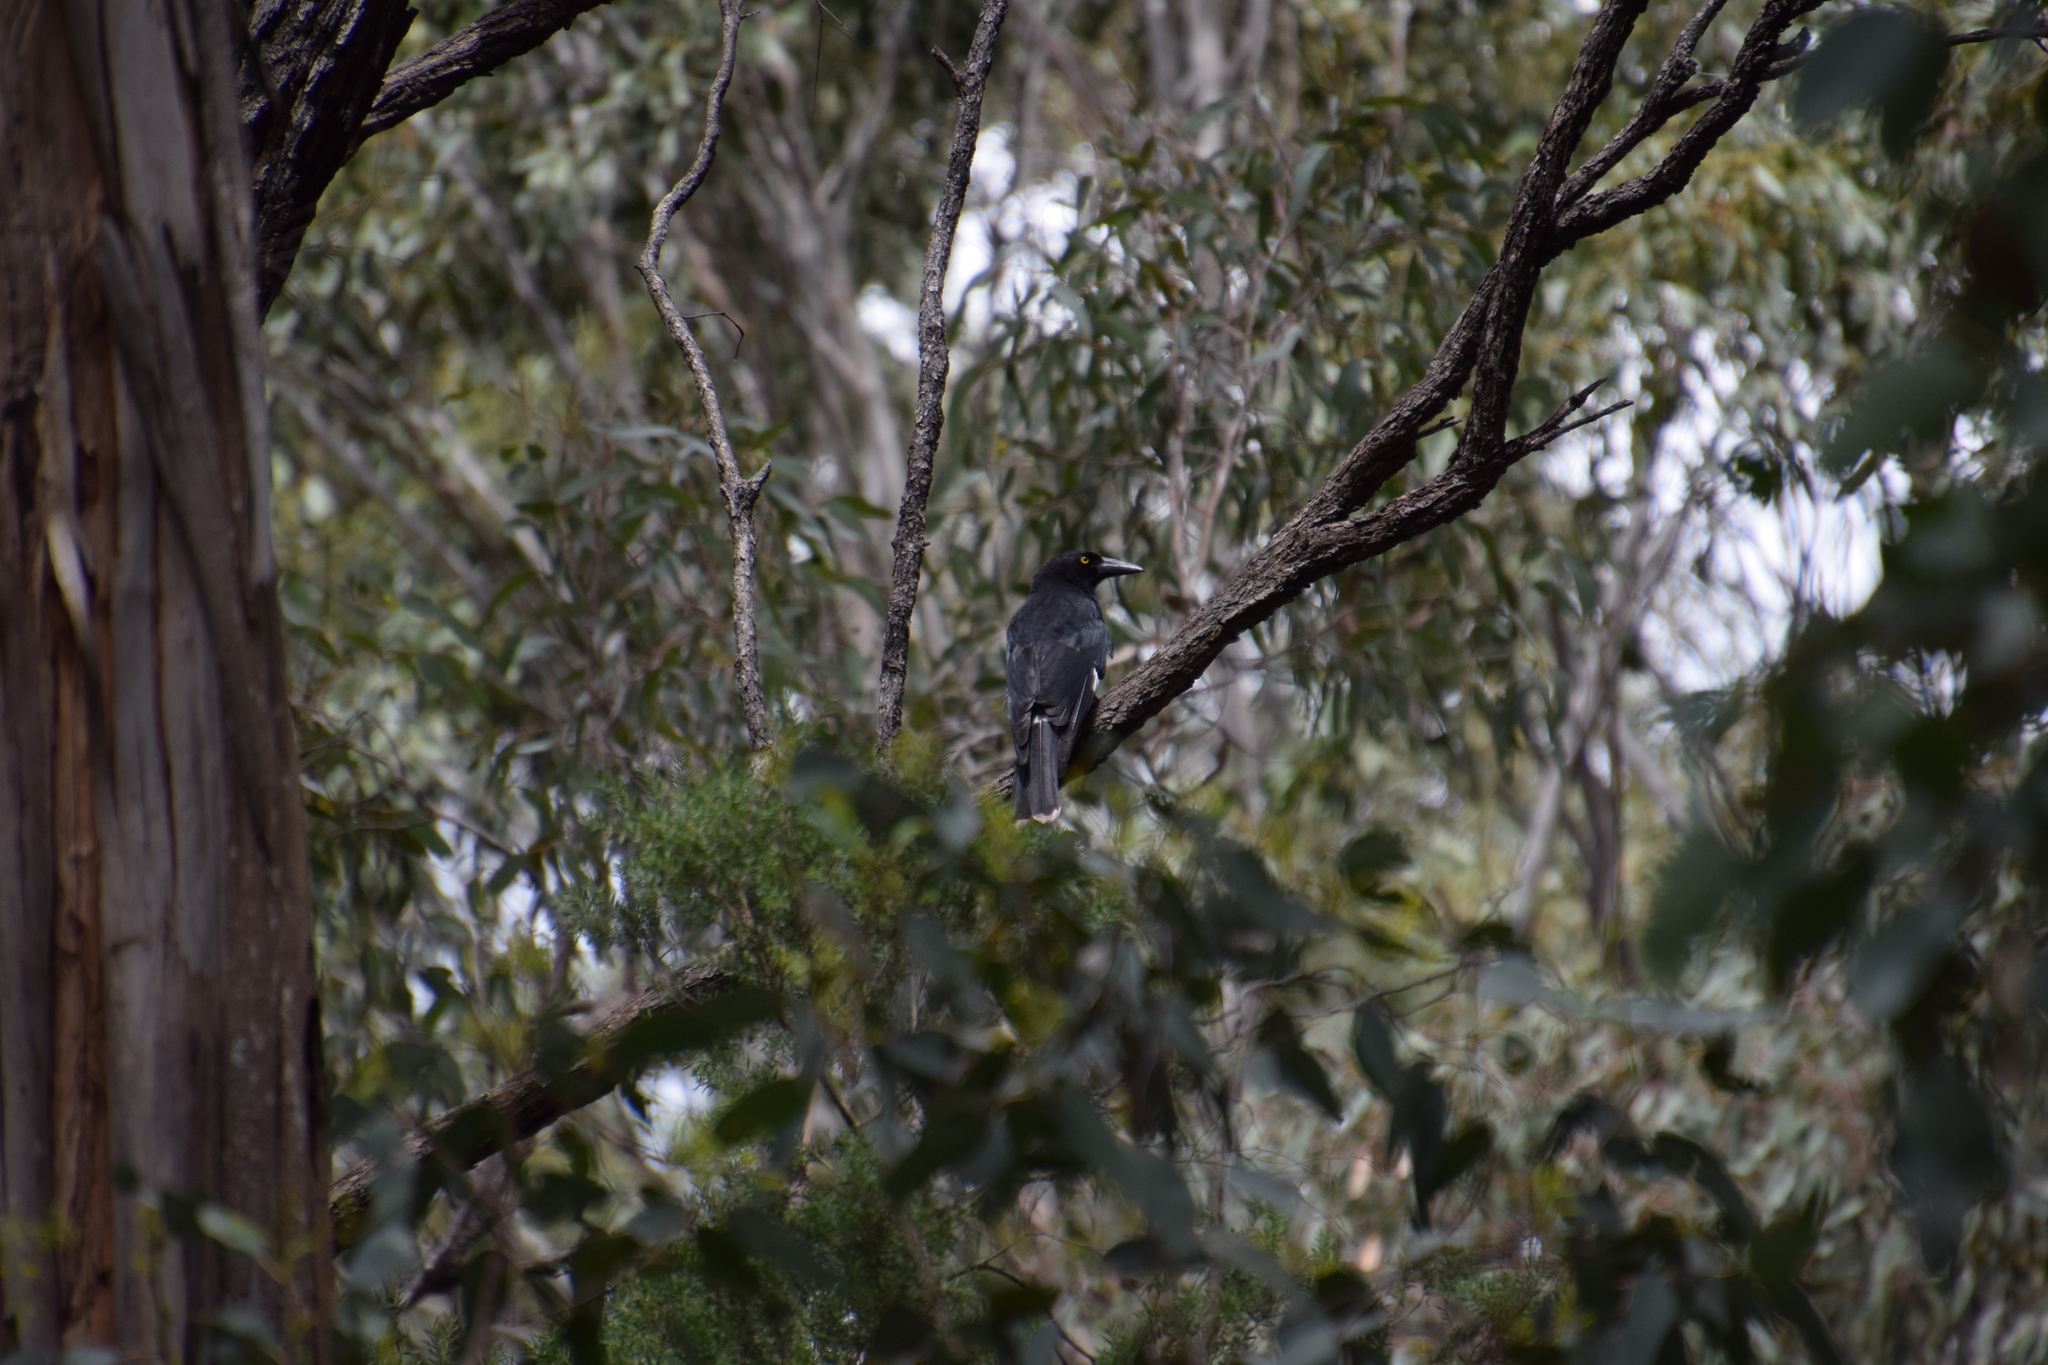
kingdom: Animalia
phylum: Chordata
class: Aves
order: Passeriformes
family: Cracticidae
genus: Strepera
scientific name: Strepera graculina
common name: Pied currawong
